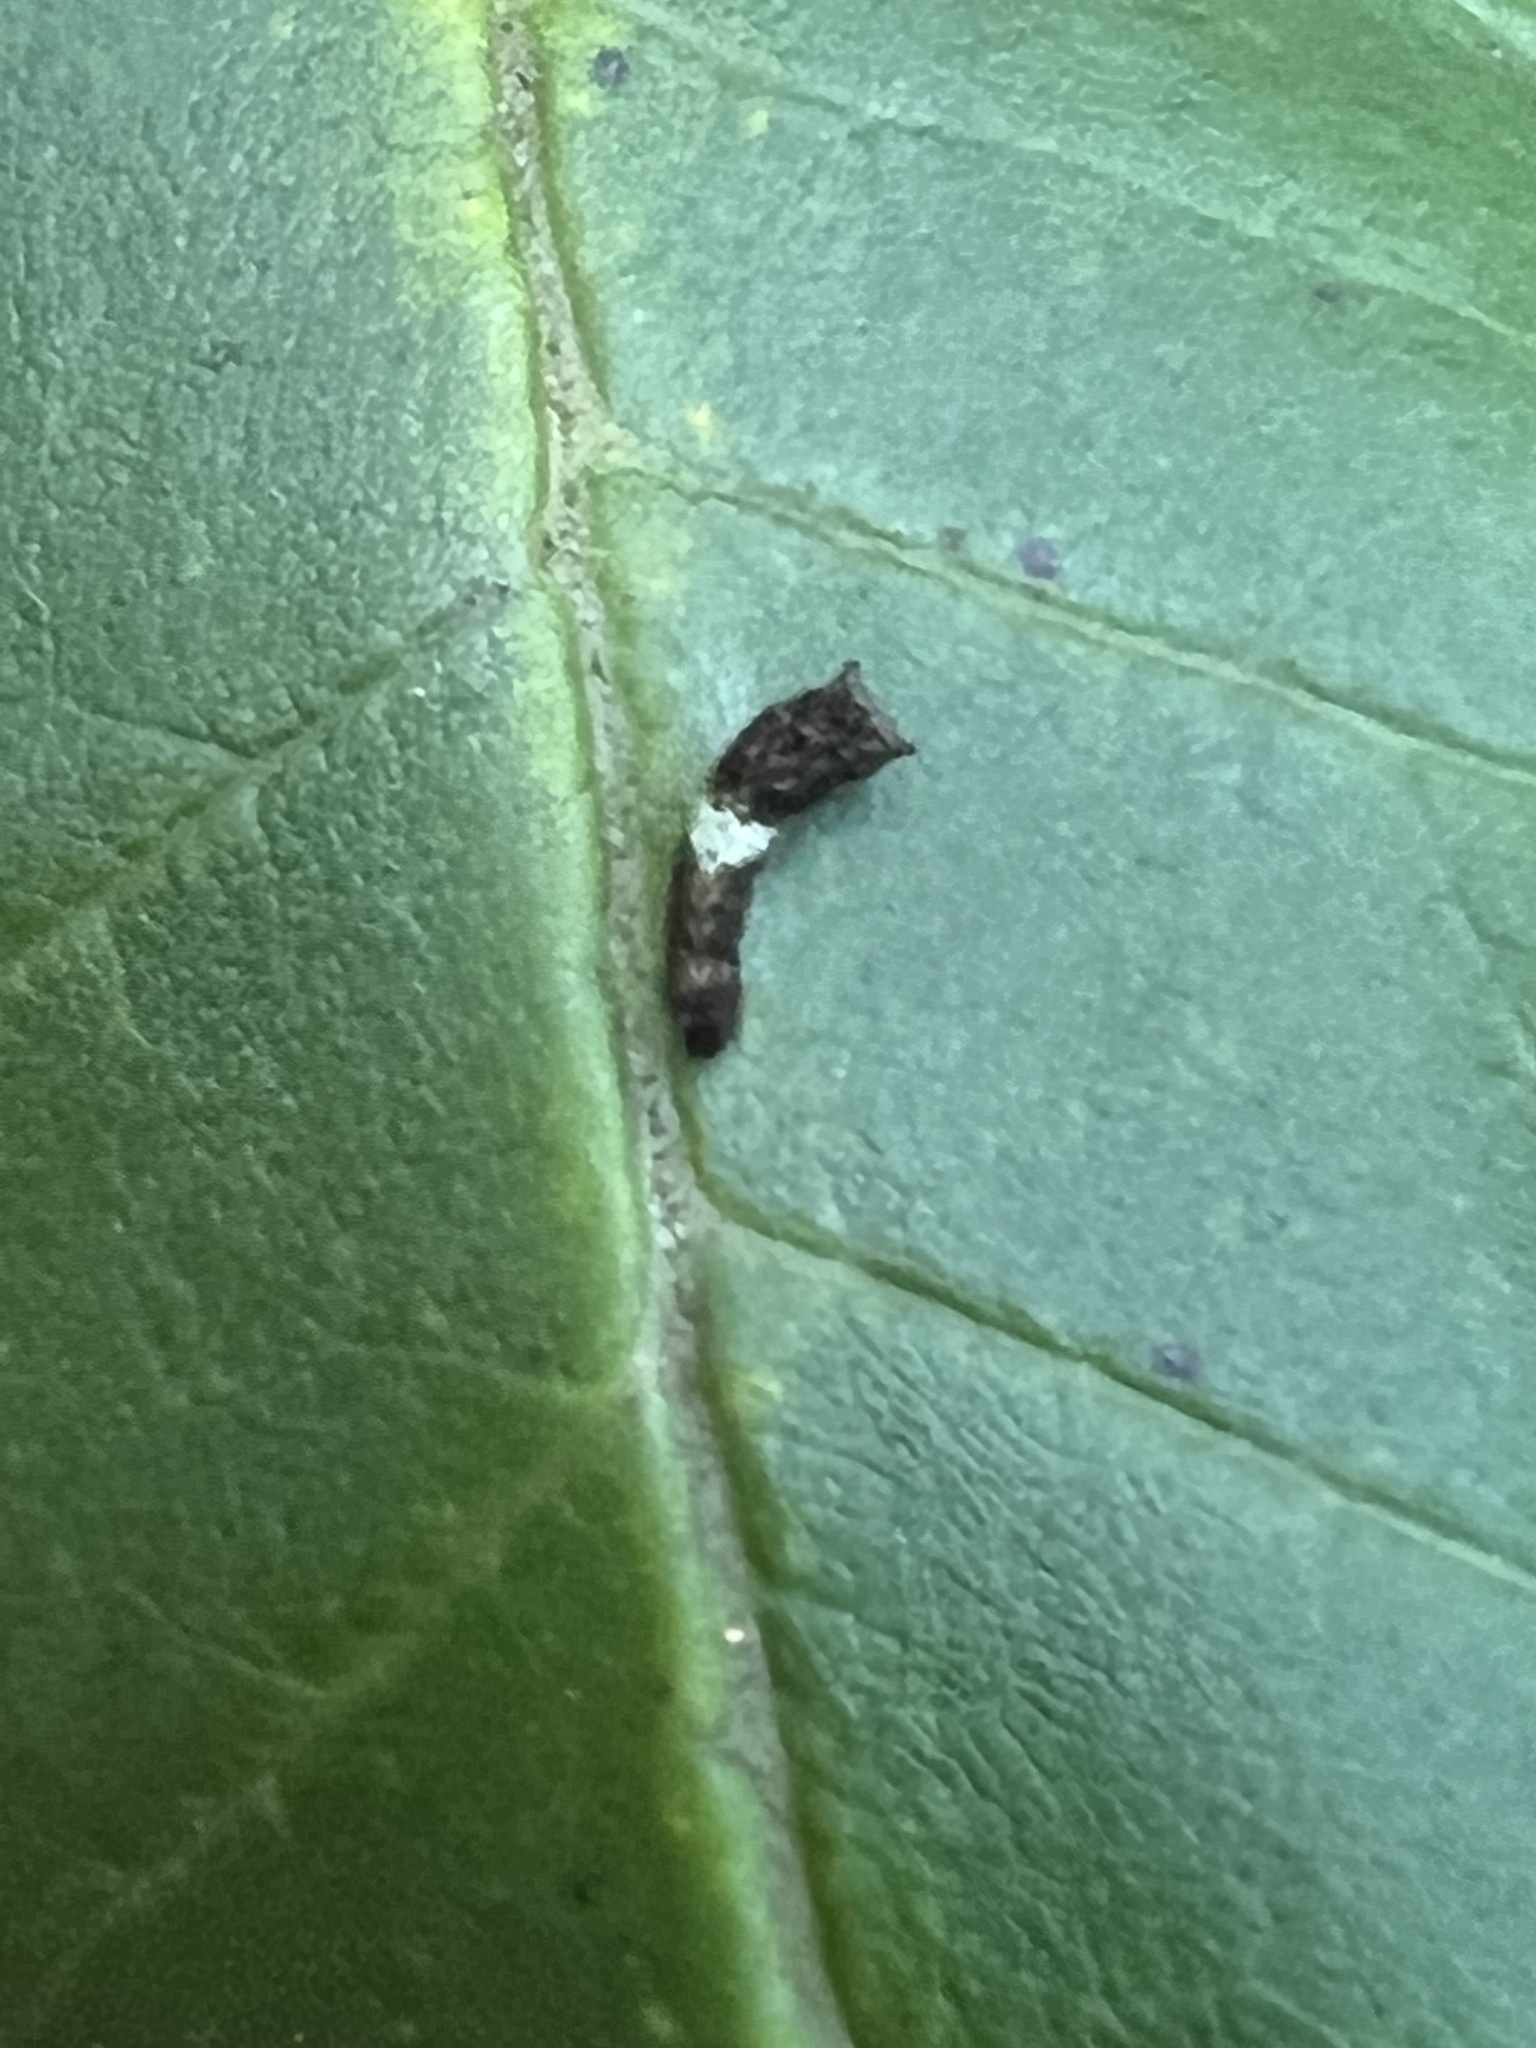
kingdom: Animalia
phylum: Arthropoda
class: Insecta
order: Lepidoptera
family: Papilionidae
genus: Papilio
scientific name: Papilio glaucus
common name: Tiger swallowtail
